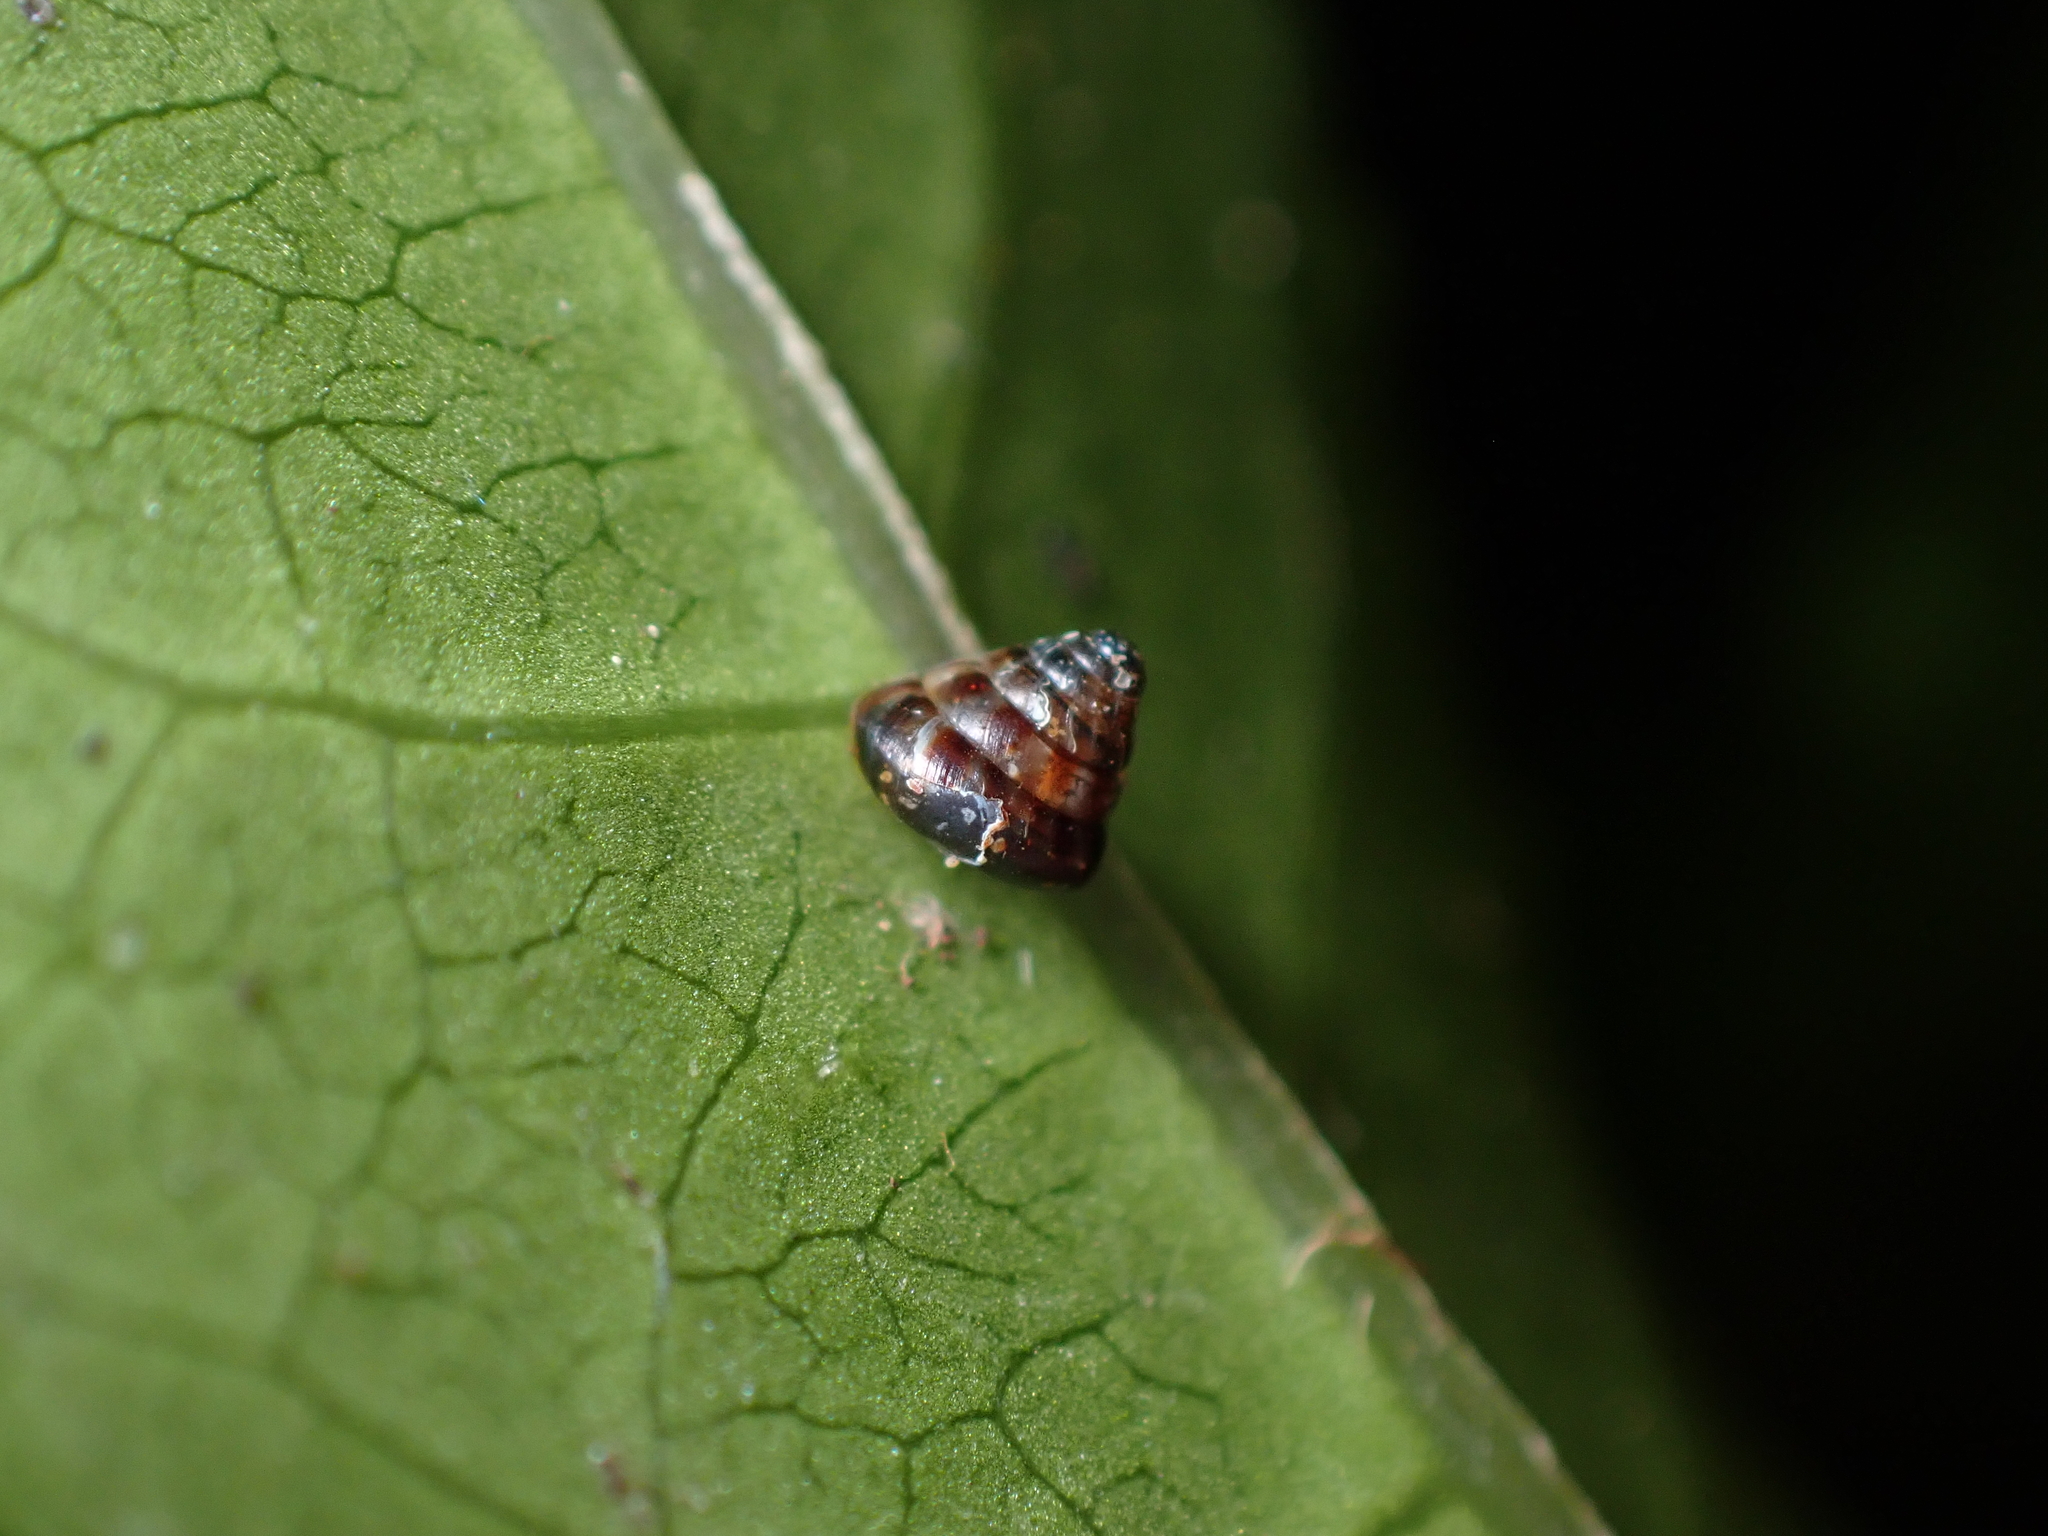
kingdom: Animalia
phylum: Mollusca
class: Gastropoda
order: Stylommatophora
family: Punctidae
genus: Phrixgnathus
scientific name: Phrixgnathus erigone
